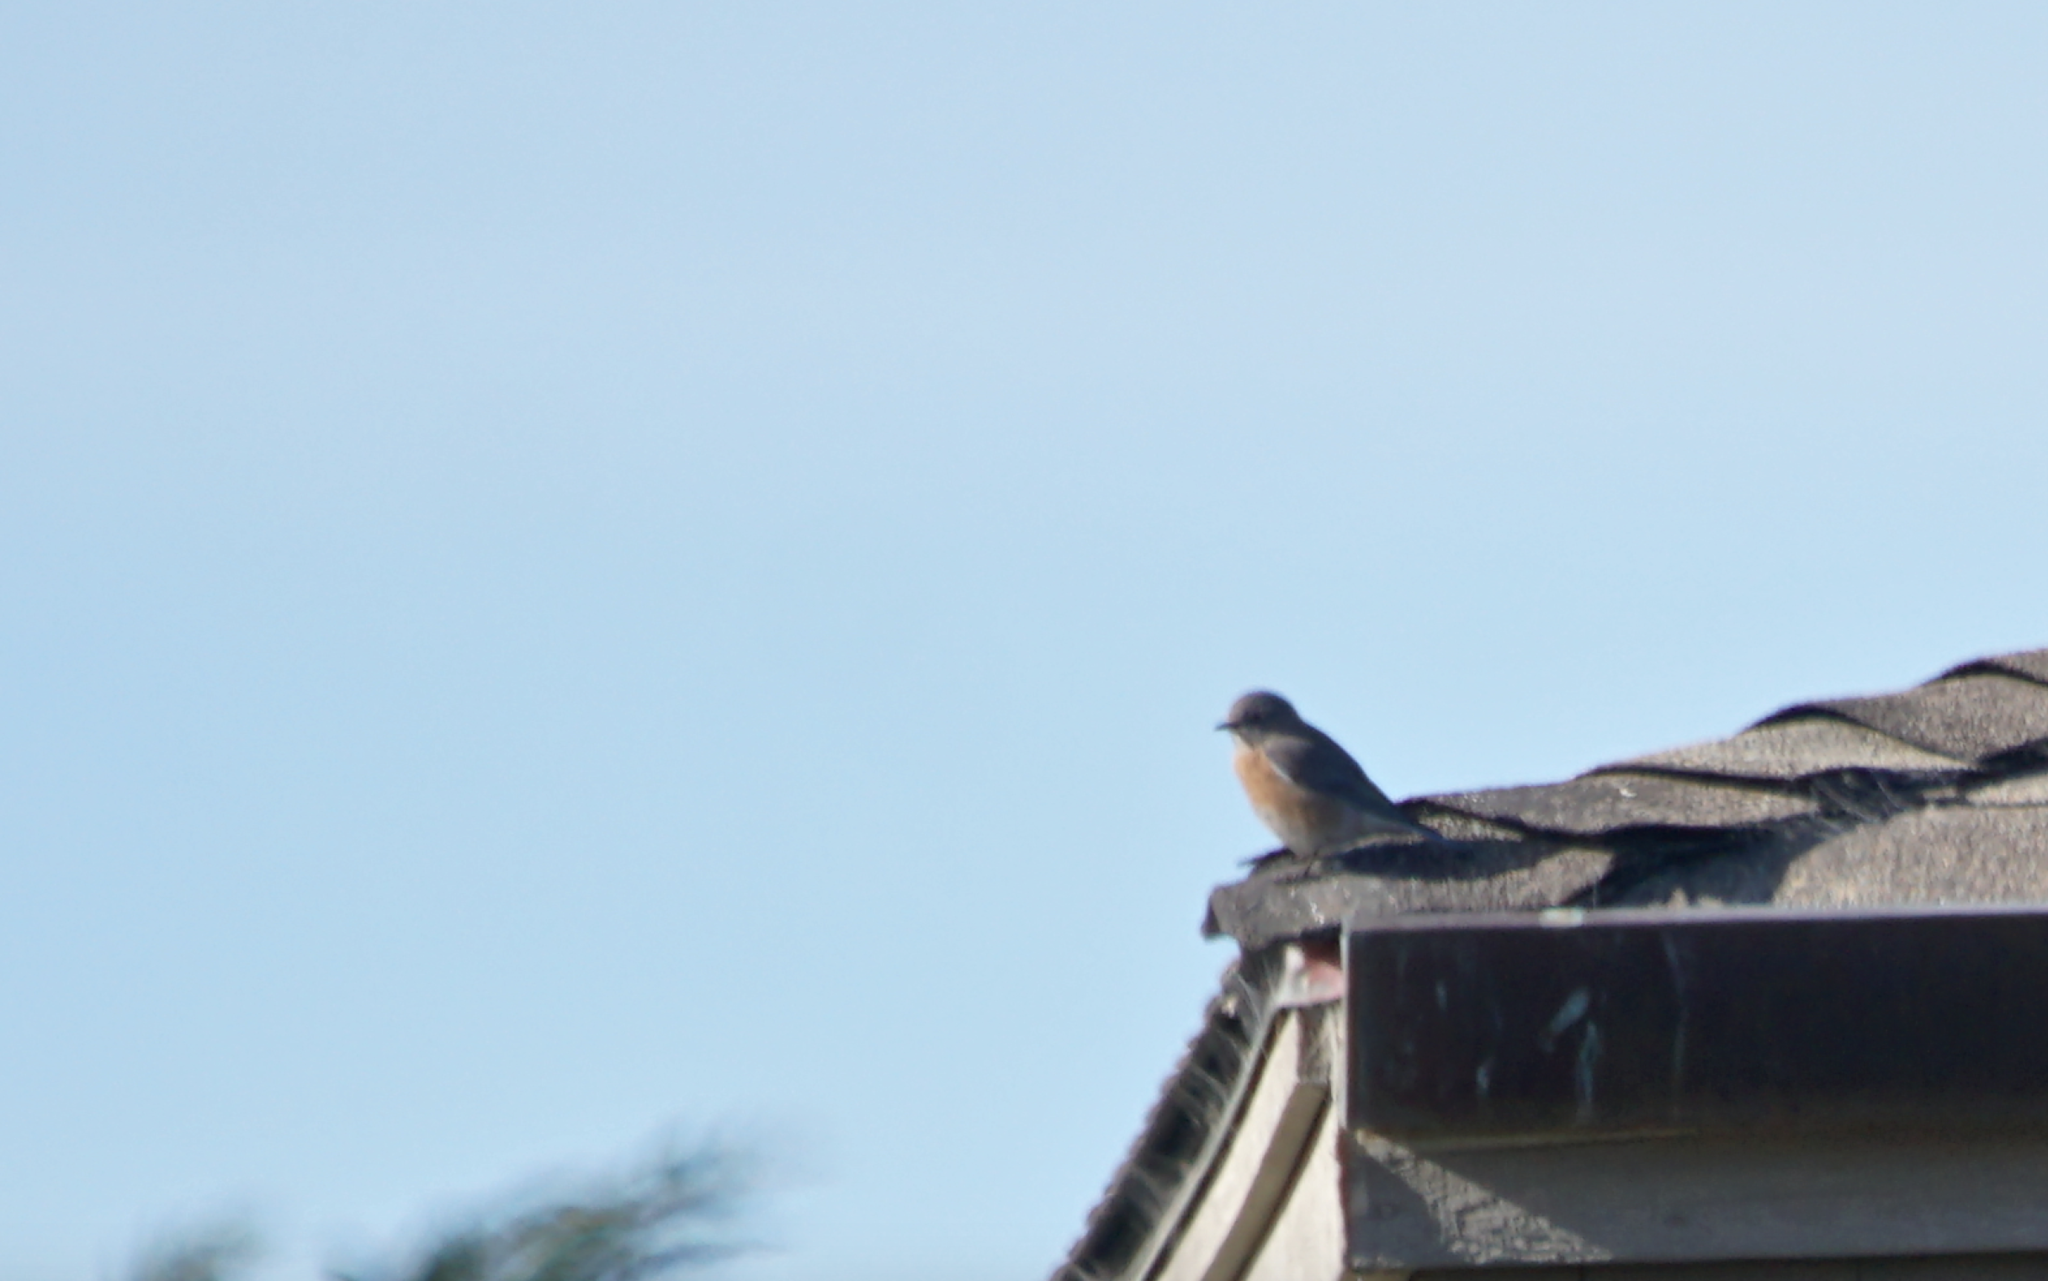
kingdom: Animalia
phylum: Chordata
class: Aves
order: Passeriformes
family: Turdidae
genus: Sialia
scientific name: Sialia mexicana
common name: Western bluebird
